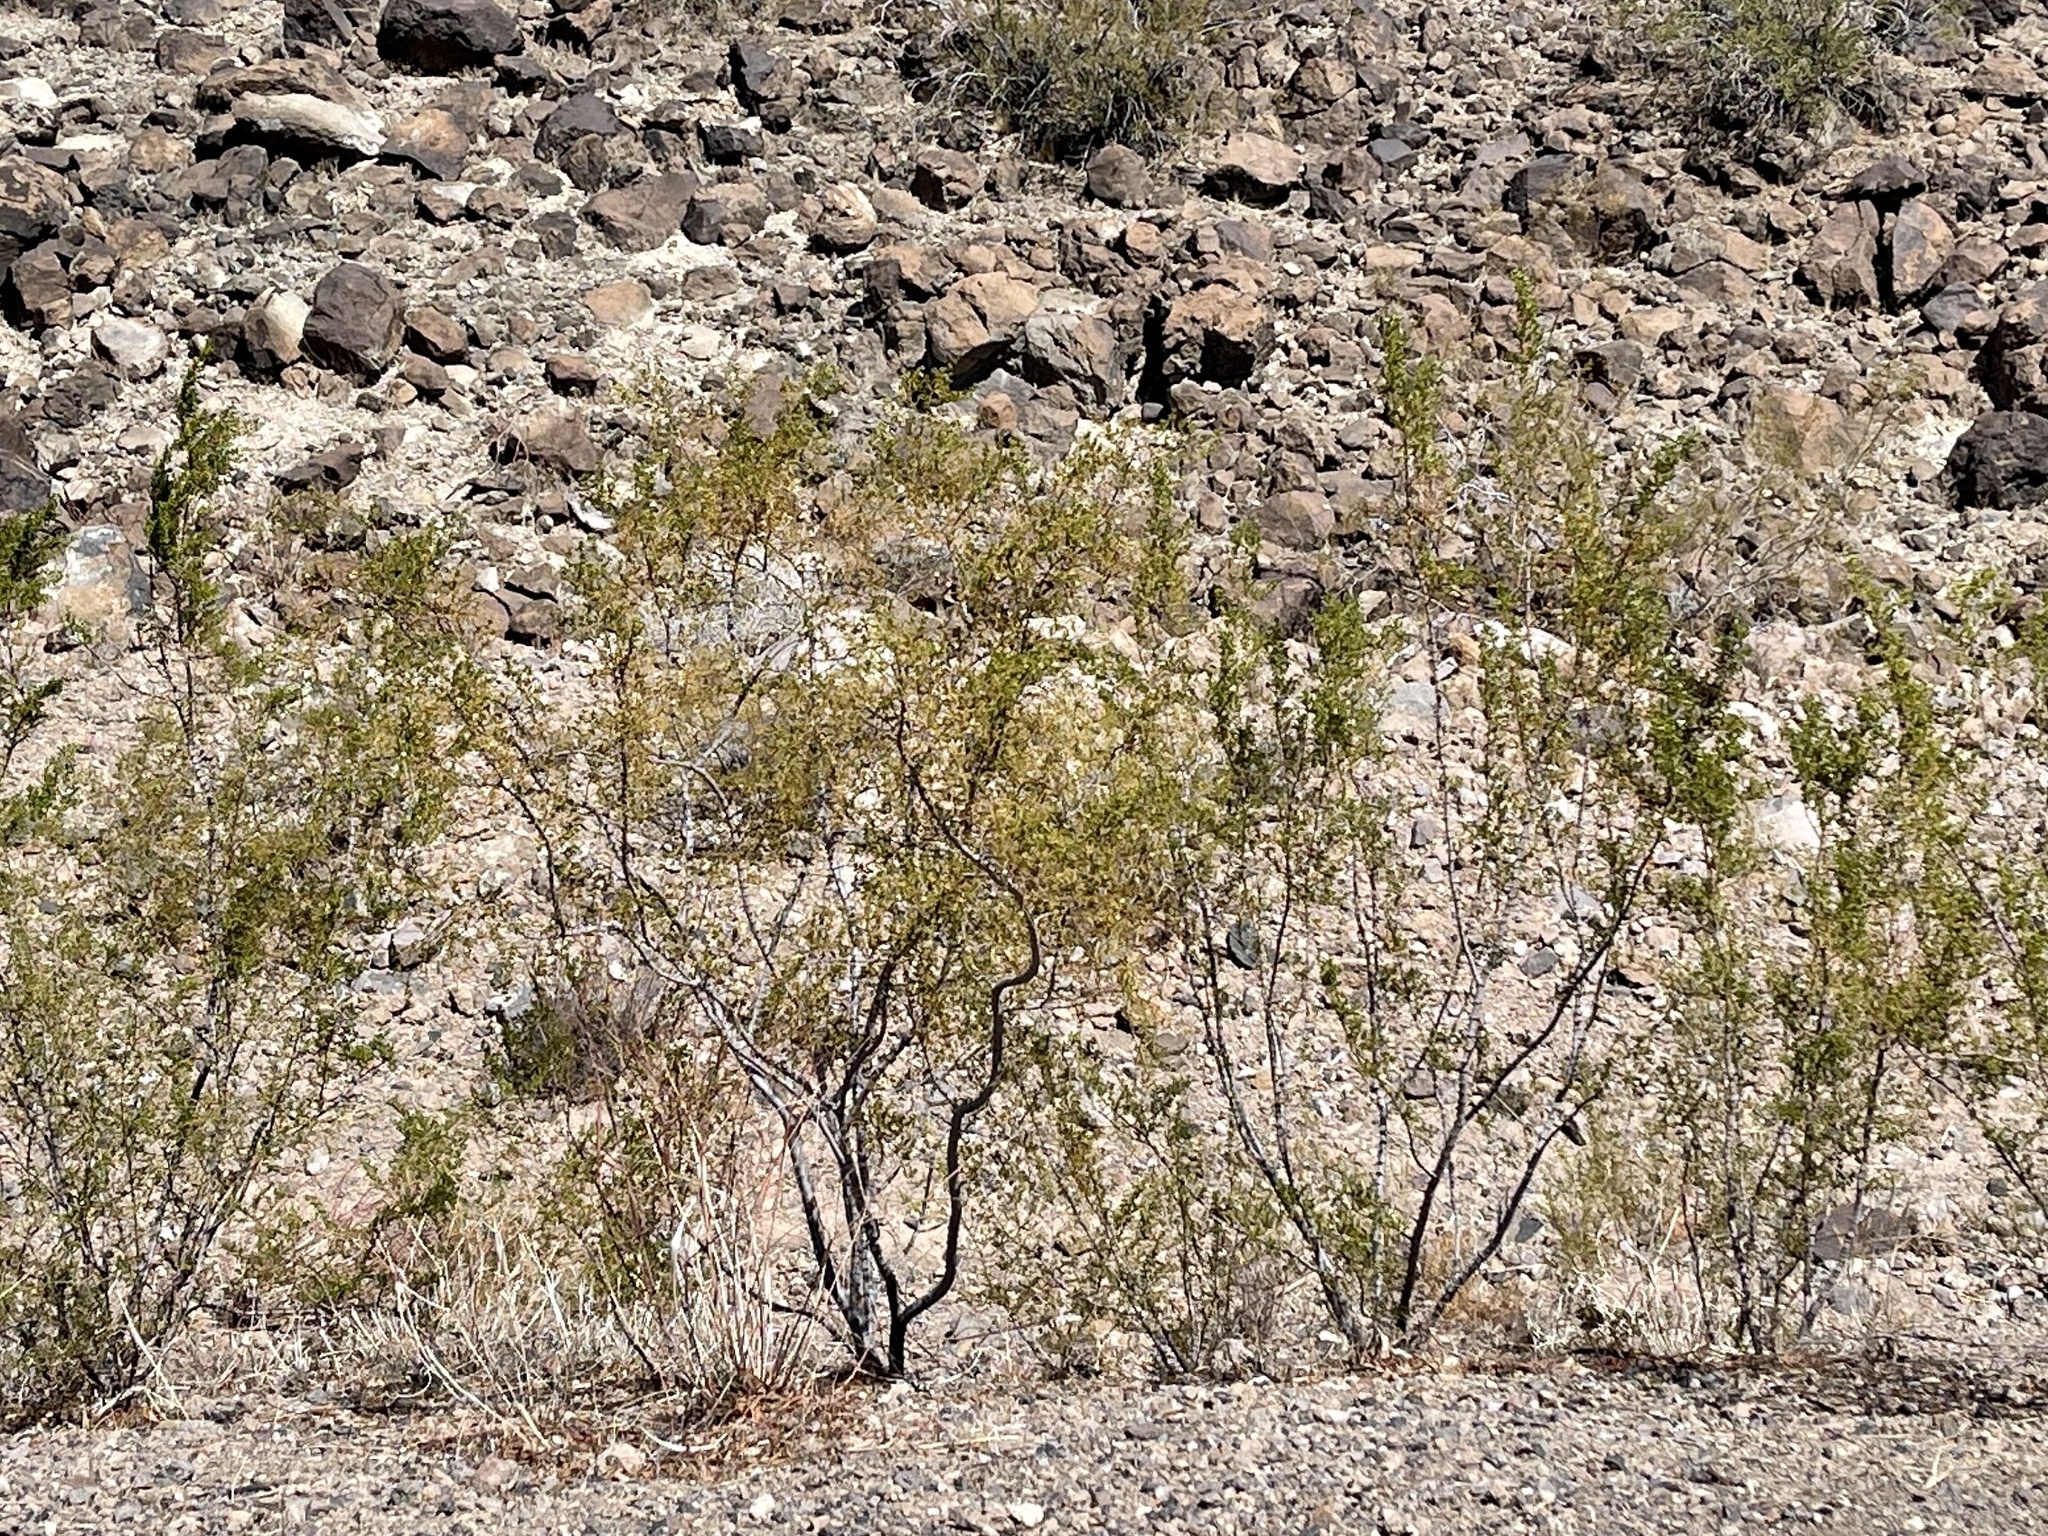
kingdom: Plantae
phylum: Tracheophyta
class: Magnoliopsida
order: Zygophyllales
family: Zygophyllaceae
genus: Larrea
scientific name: Larrea tridentata
